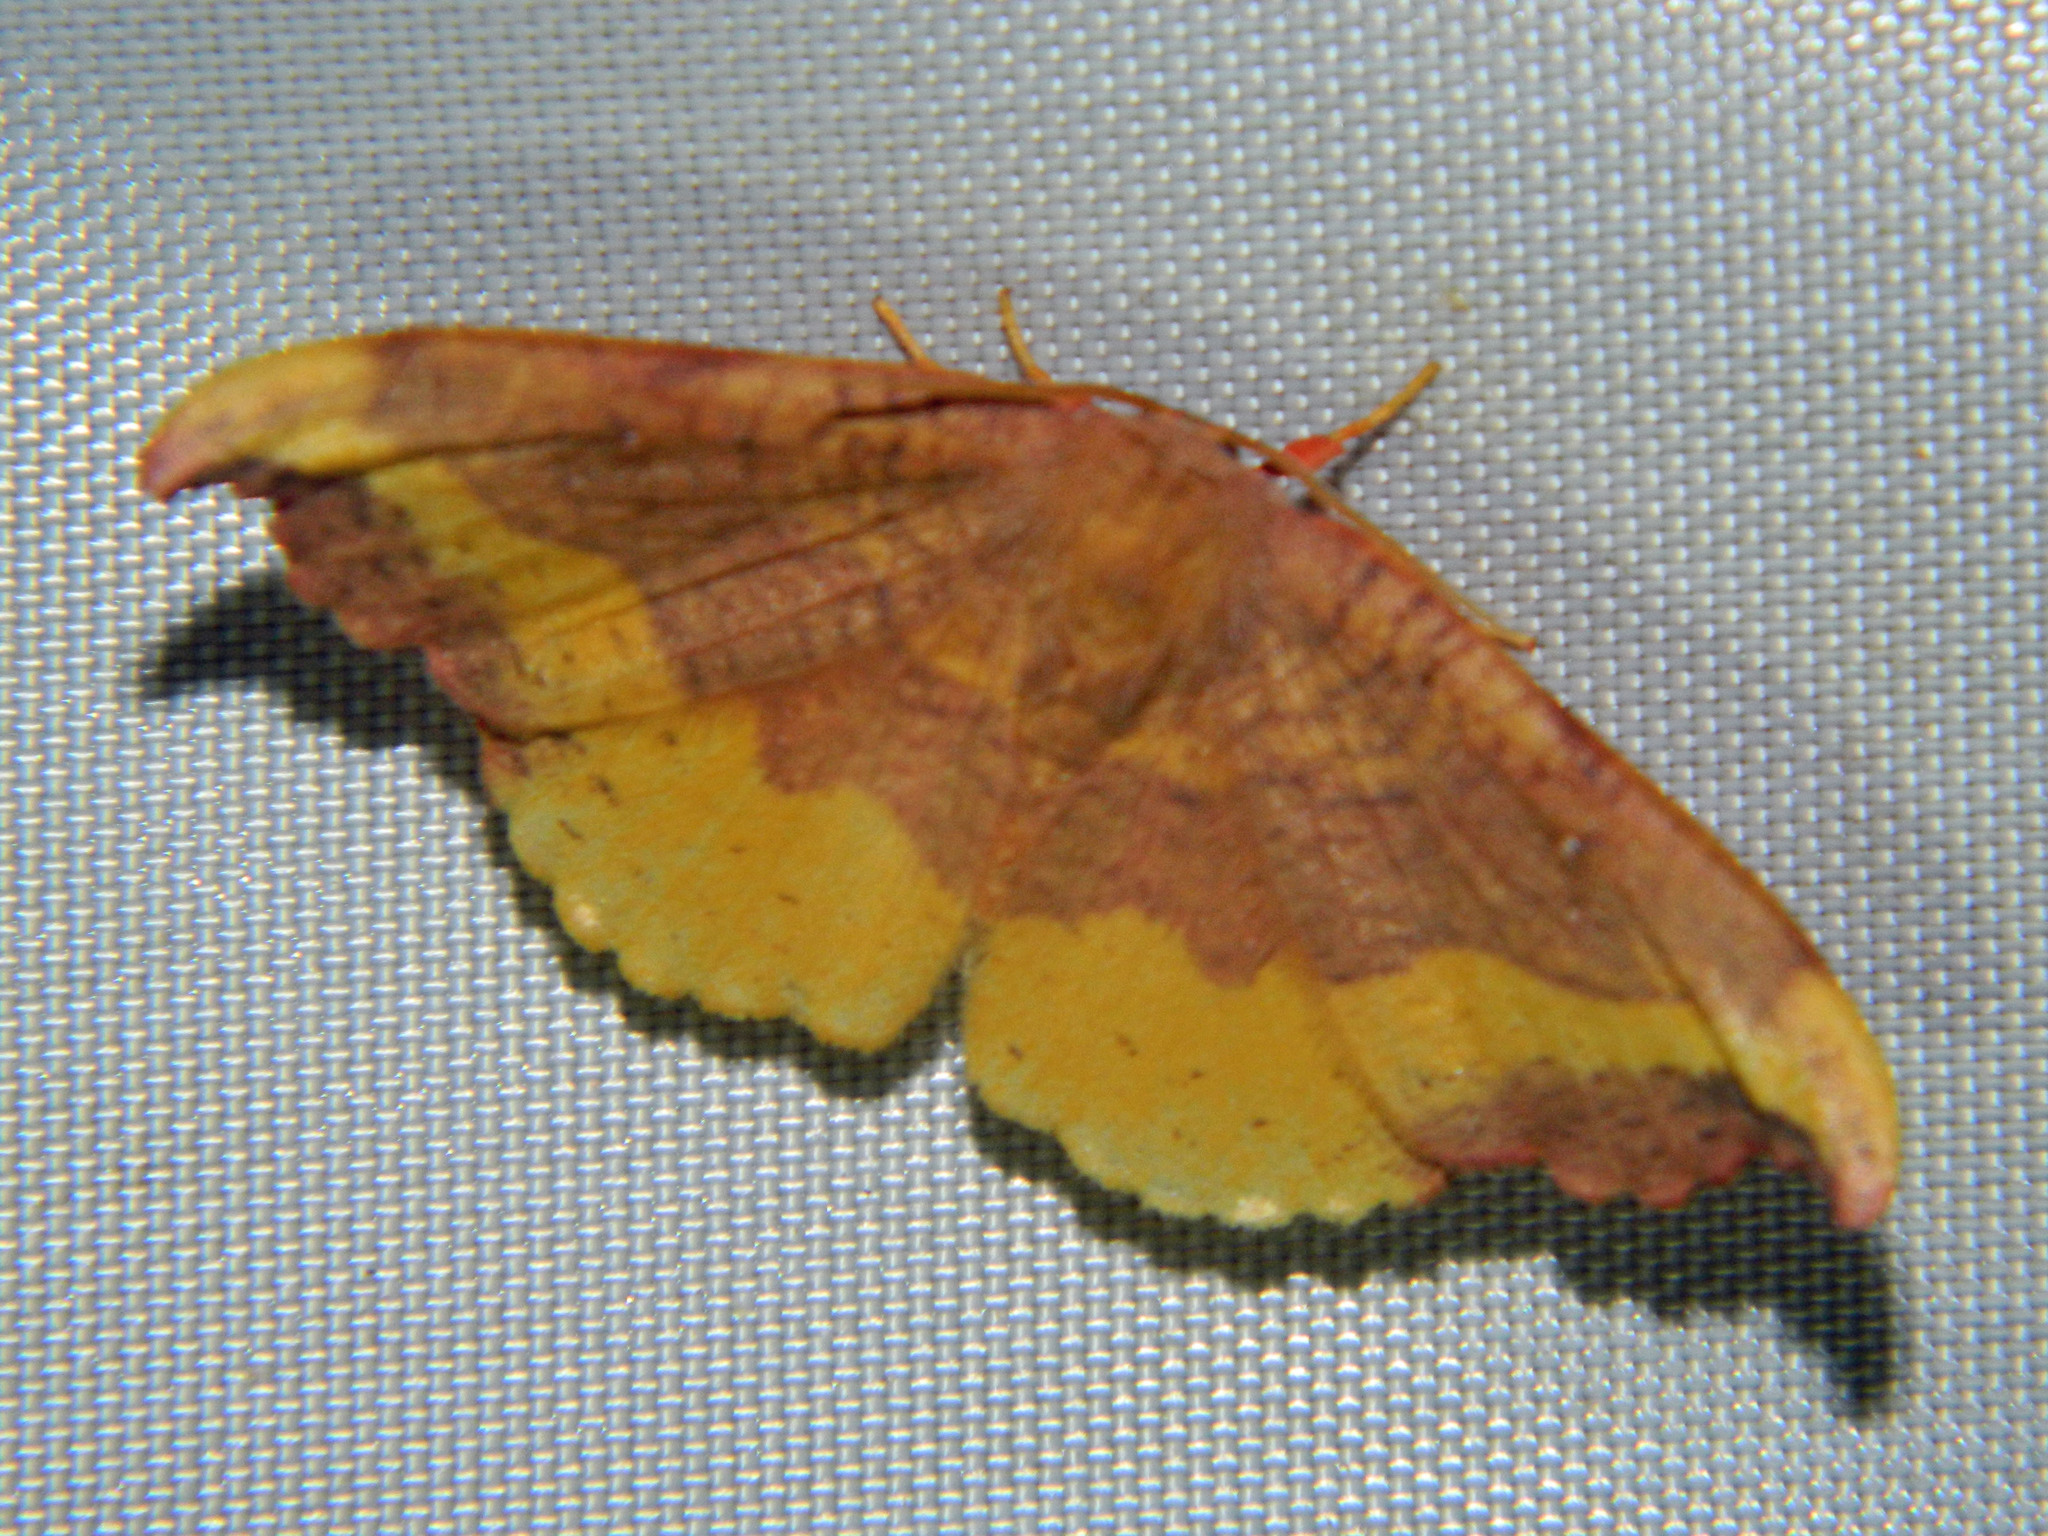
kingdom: Animalia
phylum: Arthropoda
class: Insecta
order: Lepidoptera
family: Drepanidae
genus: Oreta
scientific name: Oreta rosea
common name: Rose hooktip
